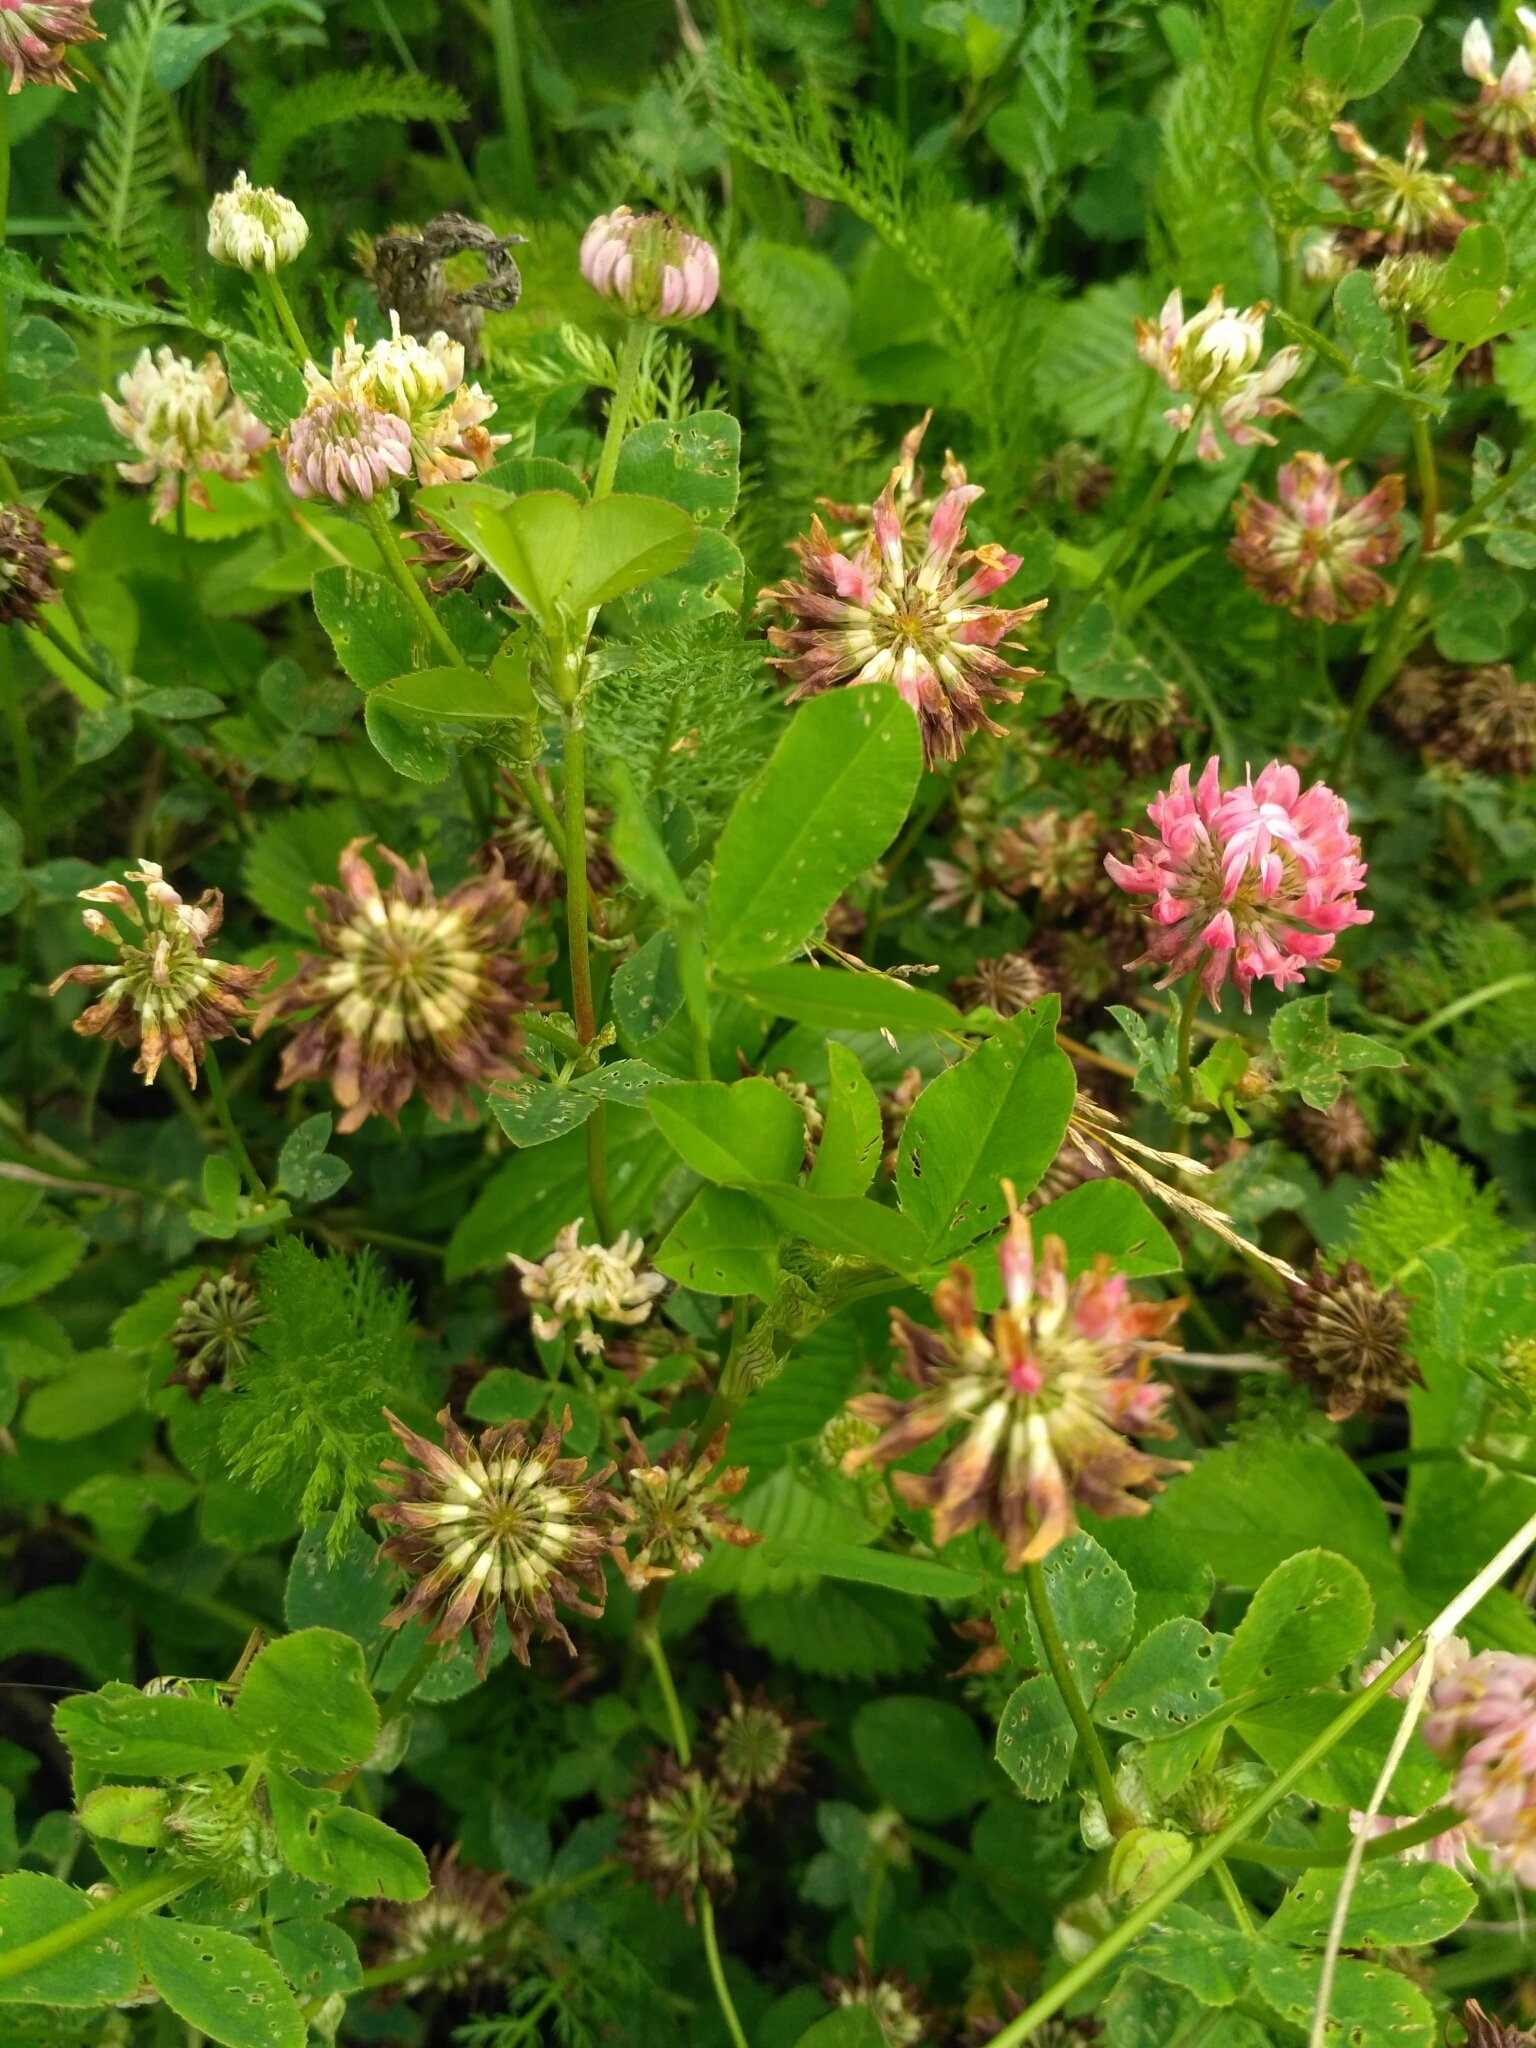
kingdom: Plantae
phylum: Tracheophyta
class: Magnoliopsida
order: Fabales
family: Fabaceae
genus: Trifolium
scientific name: Trifolium hybridum
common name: Alsike clover
